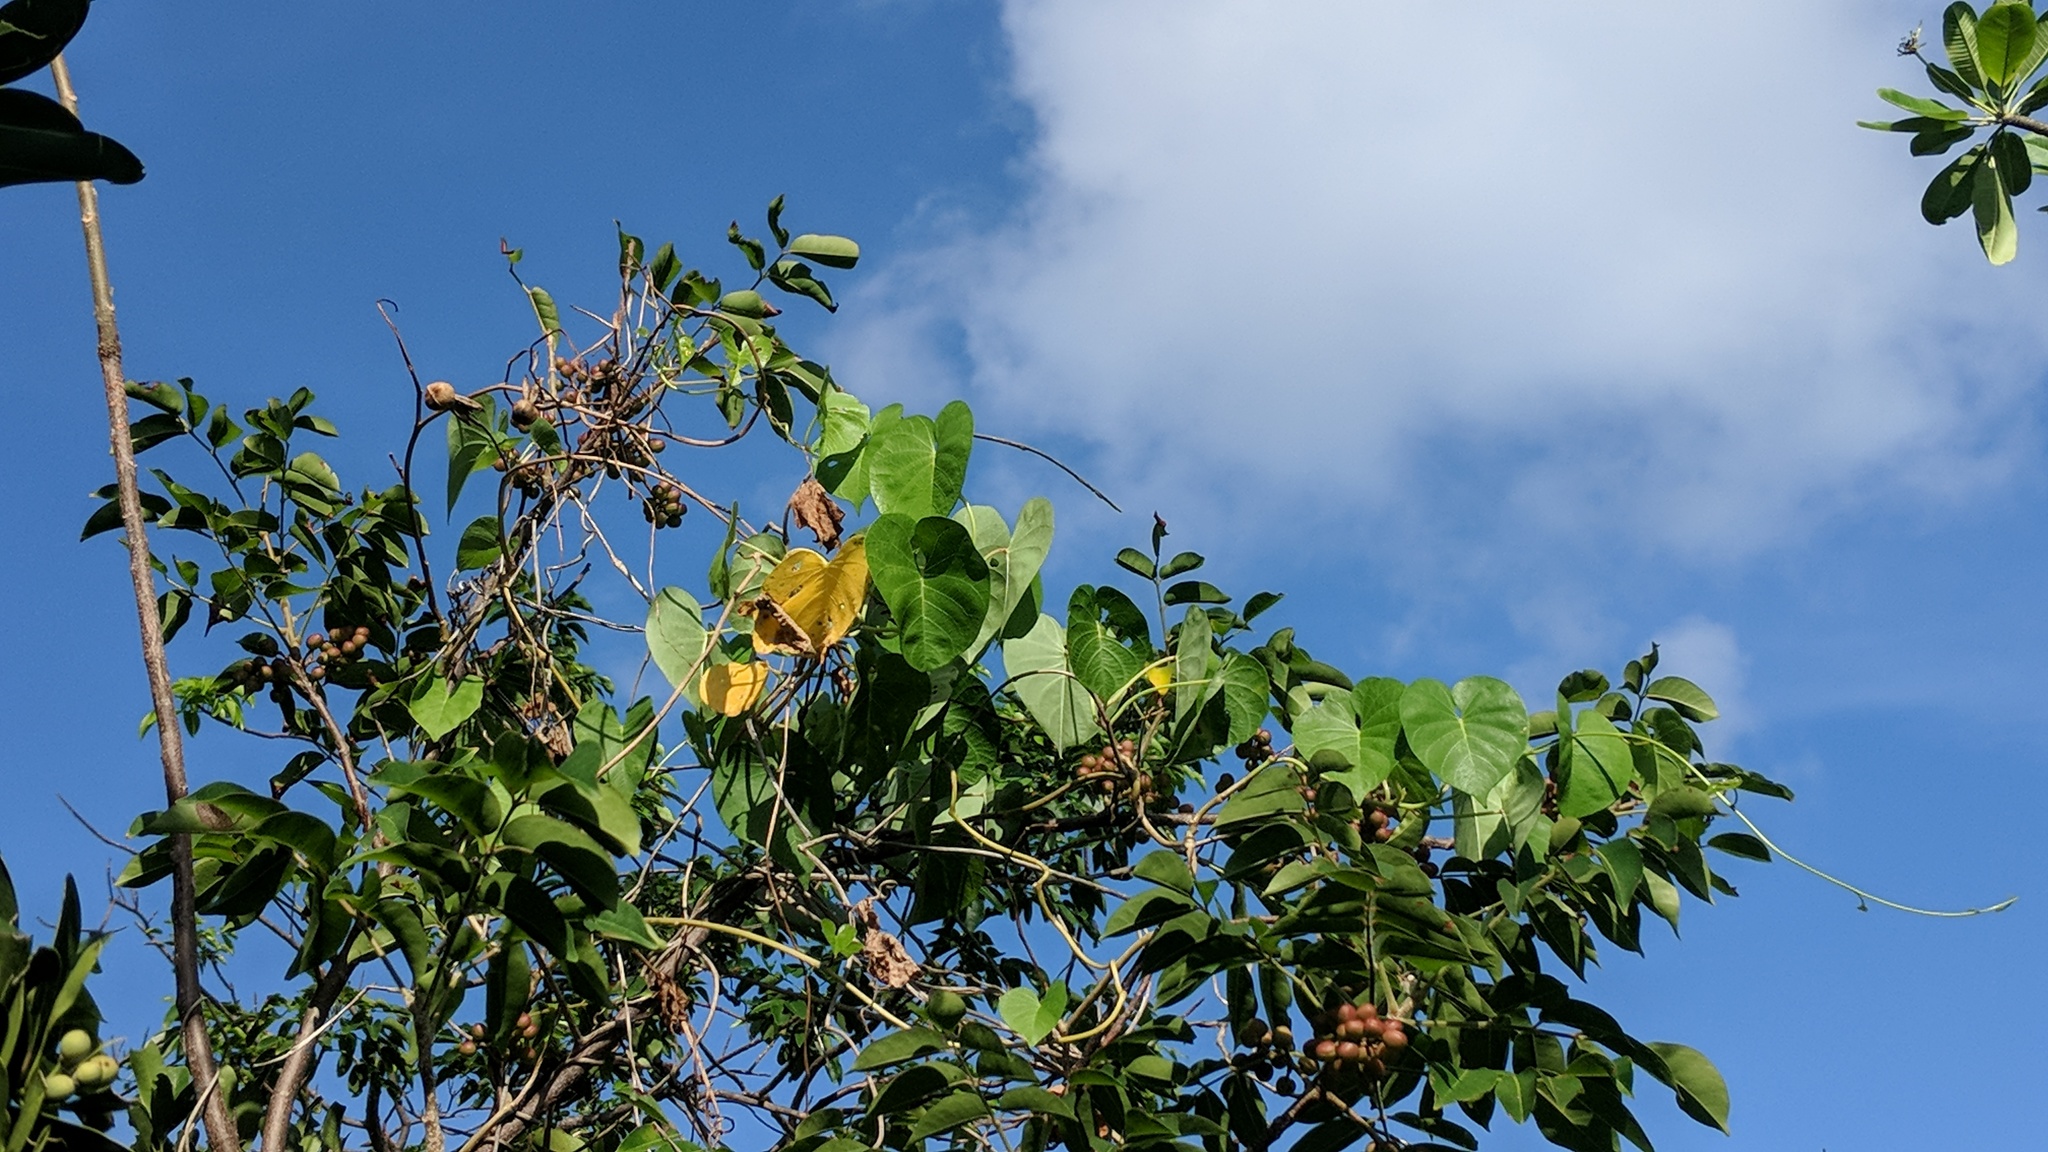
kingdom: Plantae
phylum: Tracheophyta
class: Magnoliopsida
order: Solanales
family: Convolvulaceae
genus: Ipomoea
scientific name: Ipomoea violacea
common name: Beach moonflower
